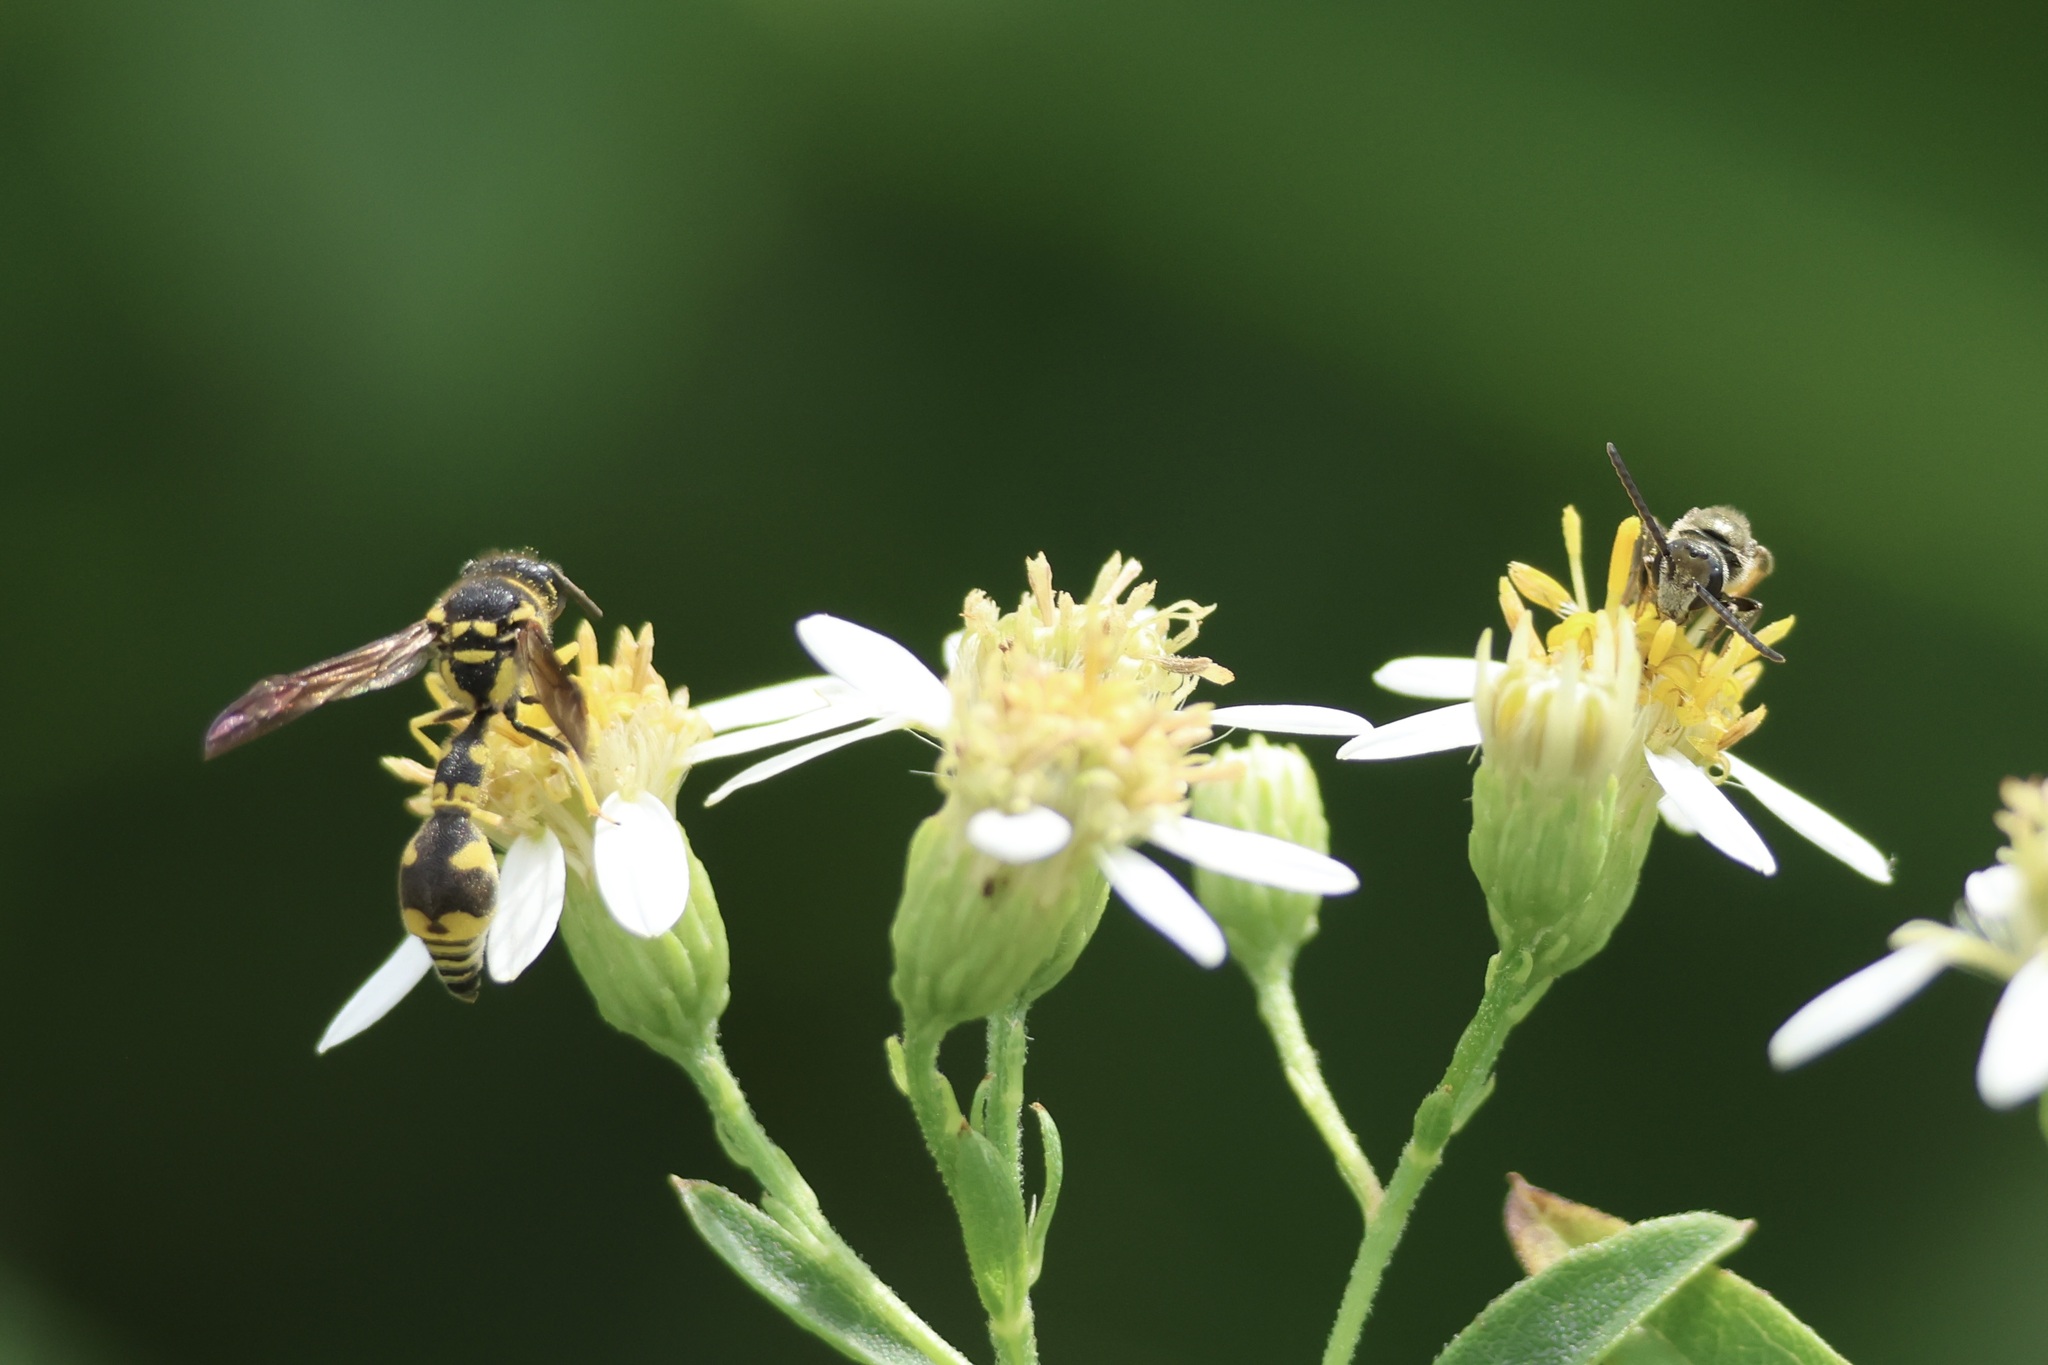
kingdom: Animalia
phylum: Arthropoda
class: Insecta
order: Hymenoptera
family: Vespidae
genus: Eumenes
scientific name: Eumenes mediterraneus
